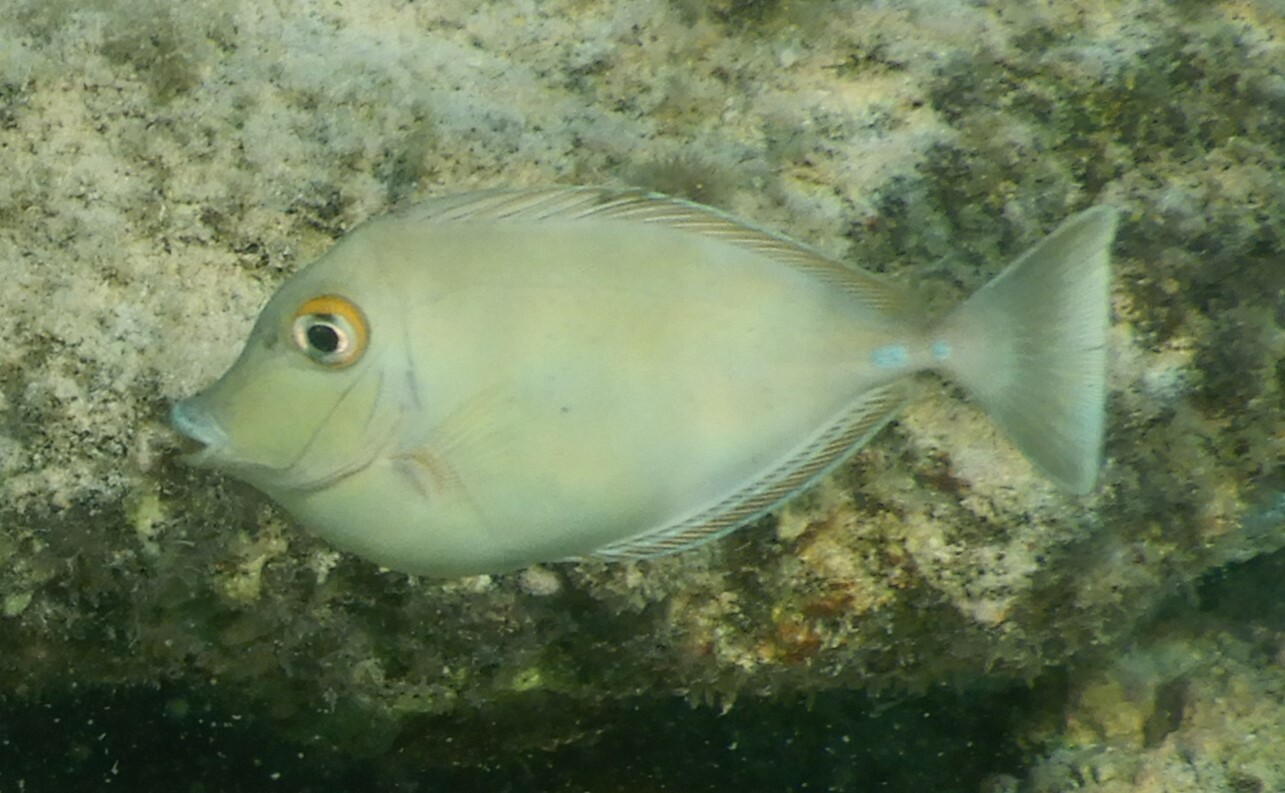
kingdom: Animalia
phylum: Chordata
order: Perciformes
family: Acanthuridae
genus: Naso
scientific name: Naso unicornis
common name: Bluespine unicornfish
